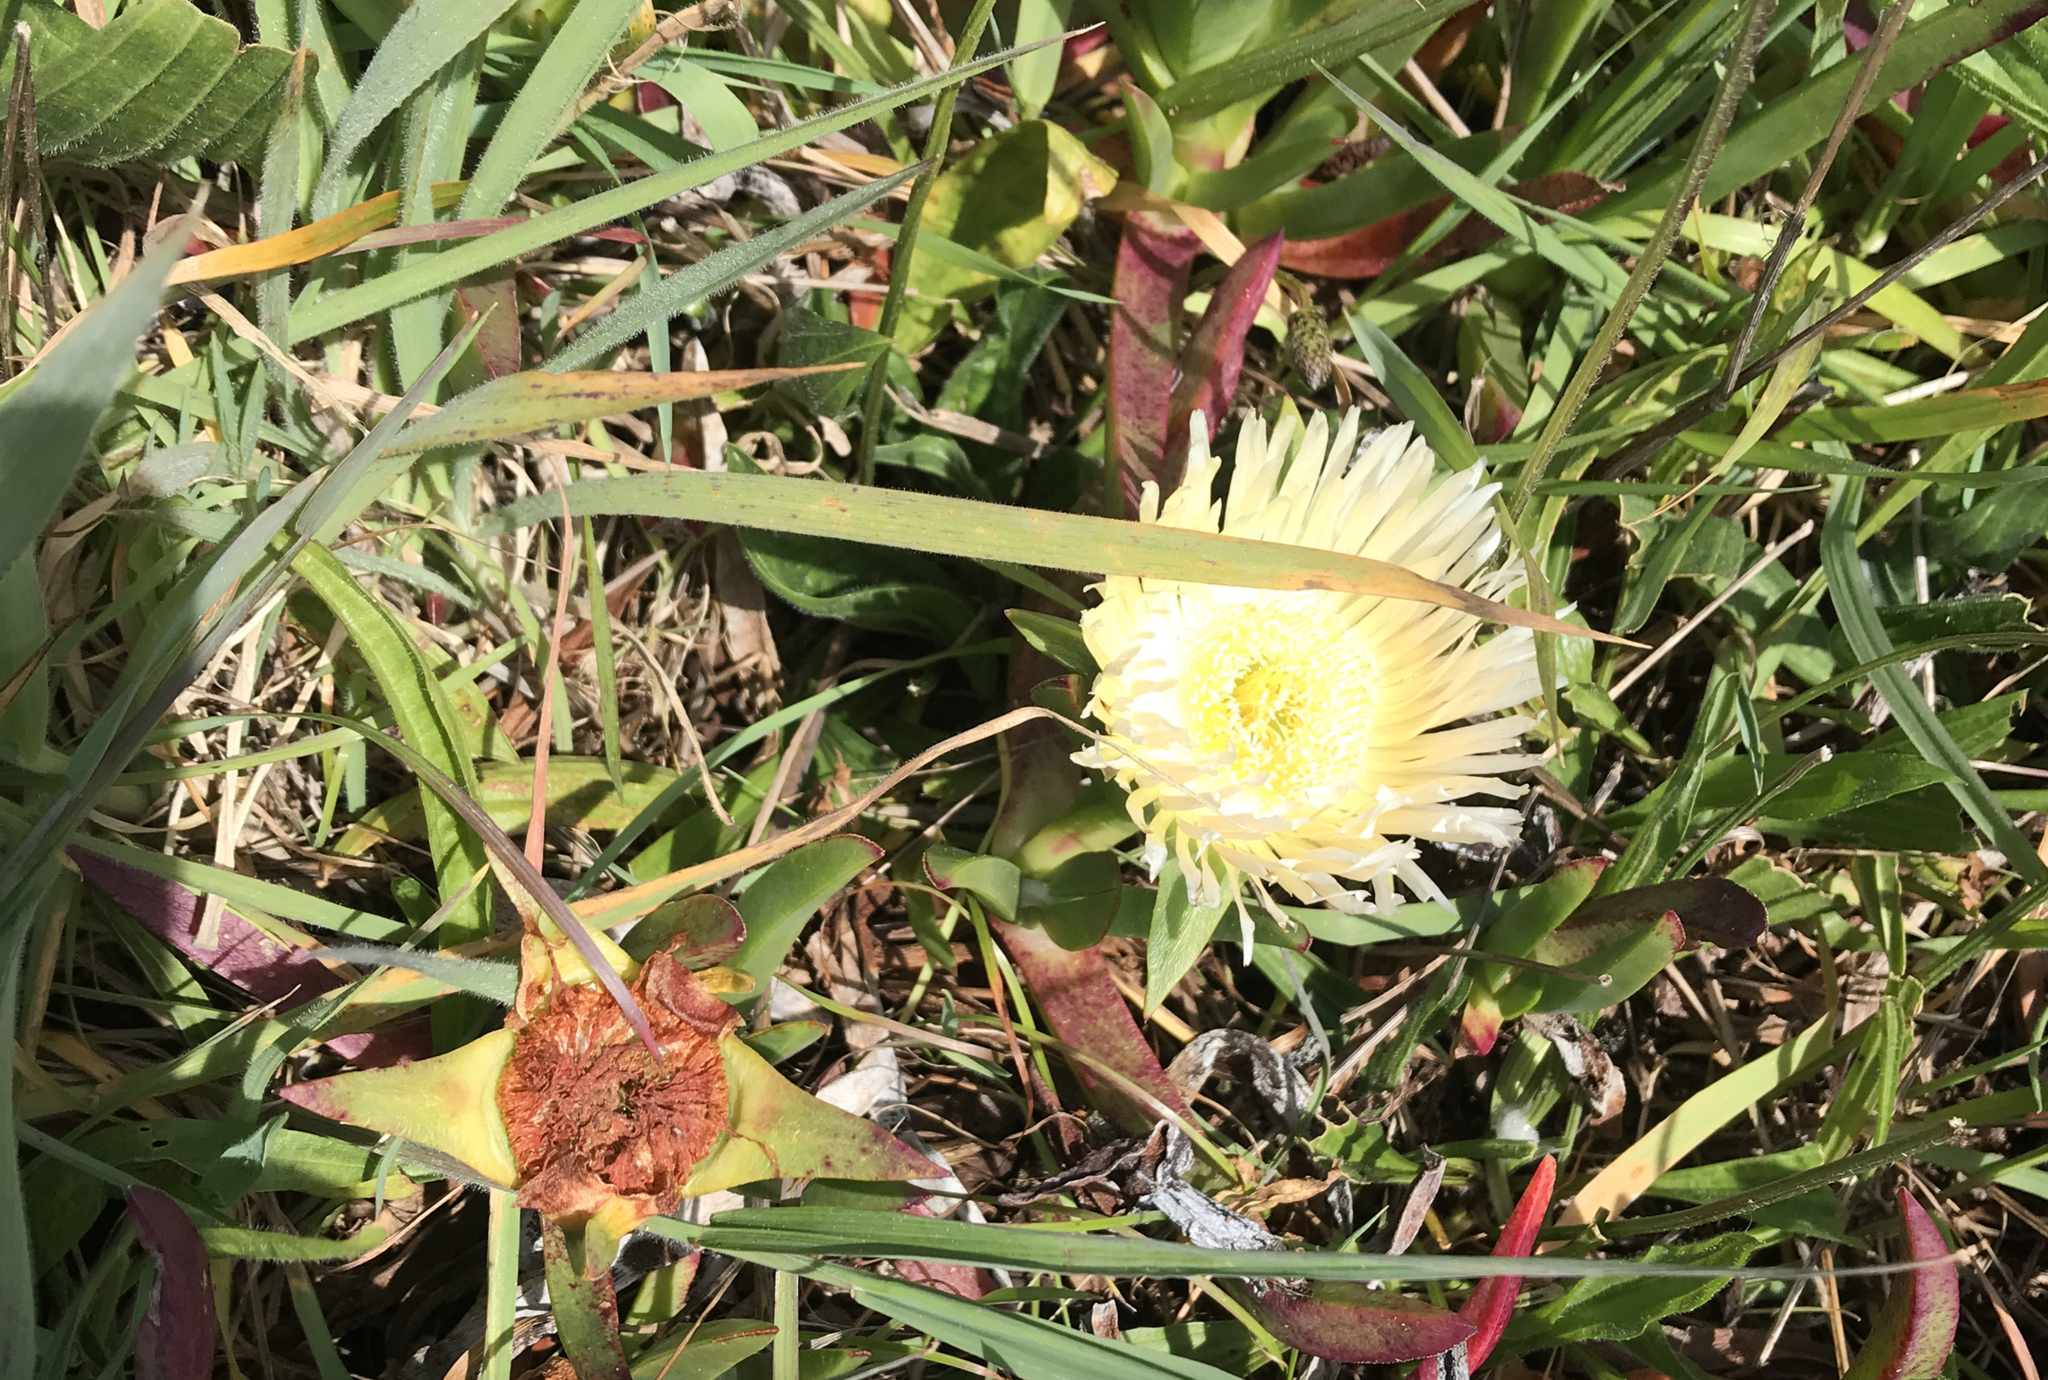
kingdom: Plantae
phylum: Tracheophyta
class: Magnoliopsida
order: Caryophyllales
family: Aizoaceae
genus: Carpobrotus
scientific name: Carpobrotus edulis
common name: Hottentot-fig
